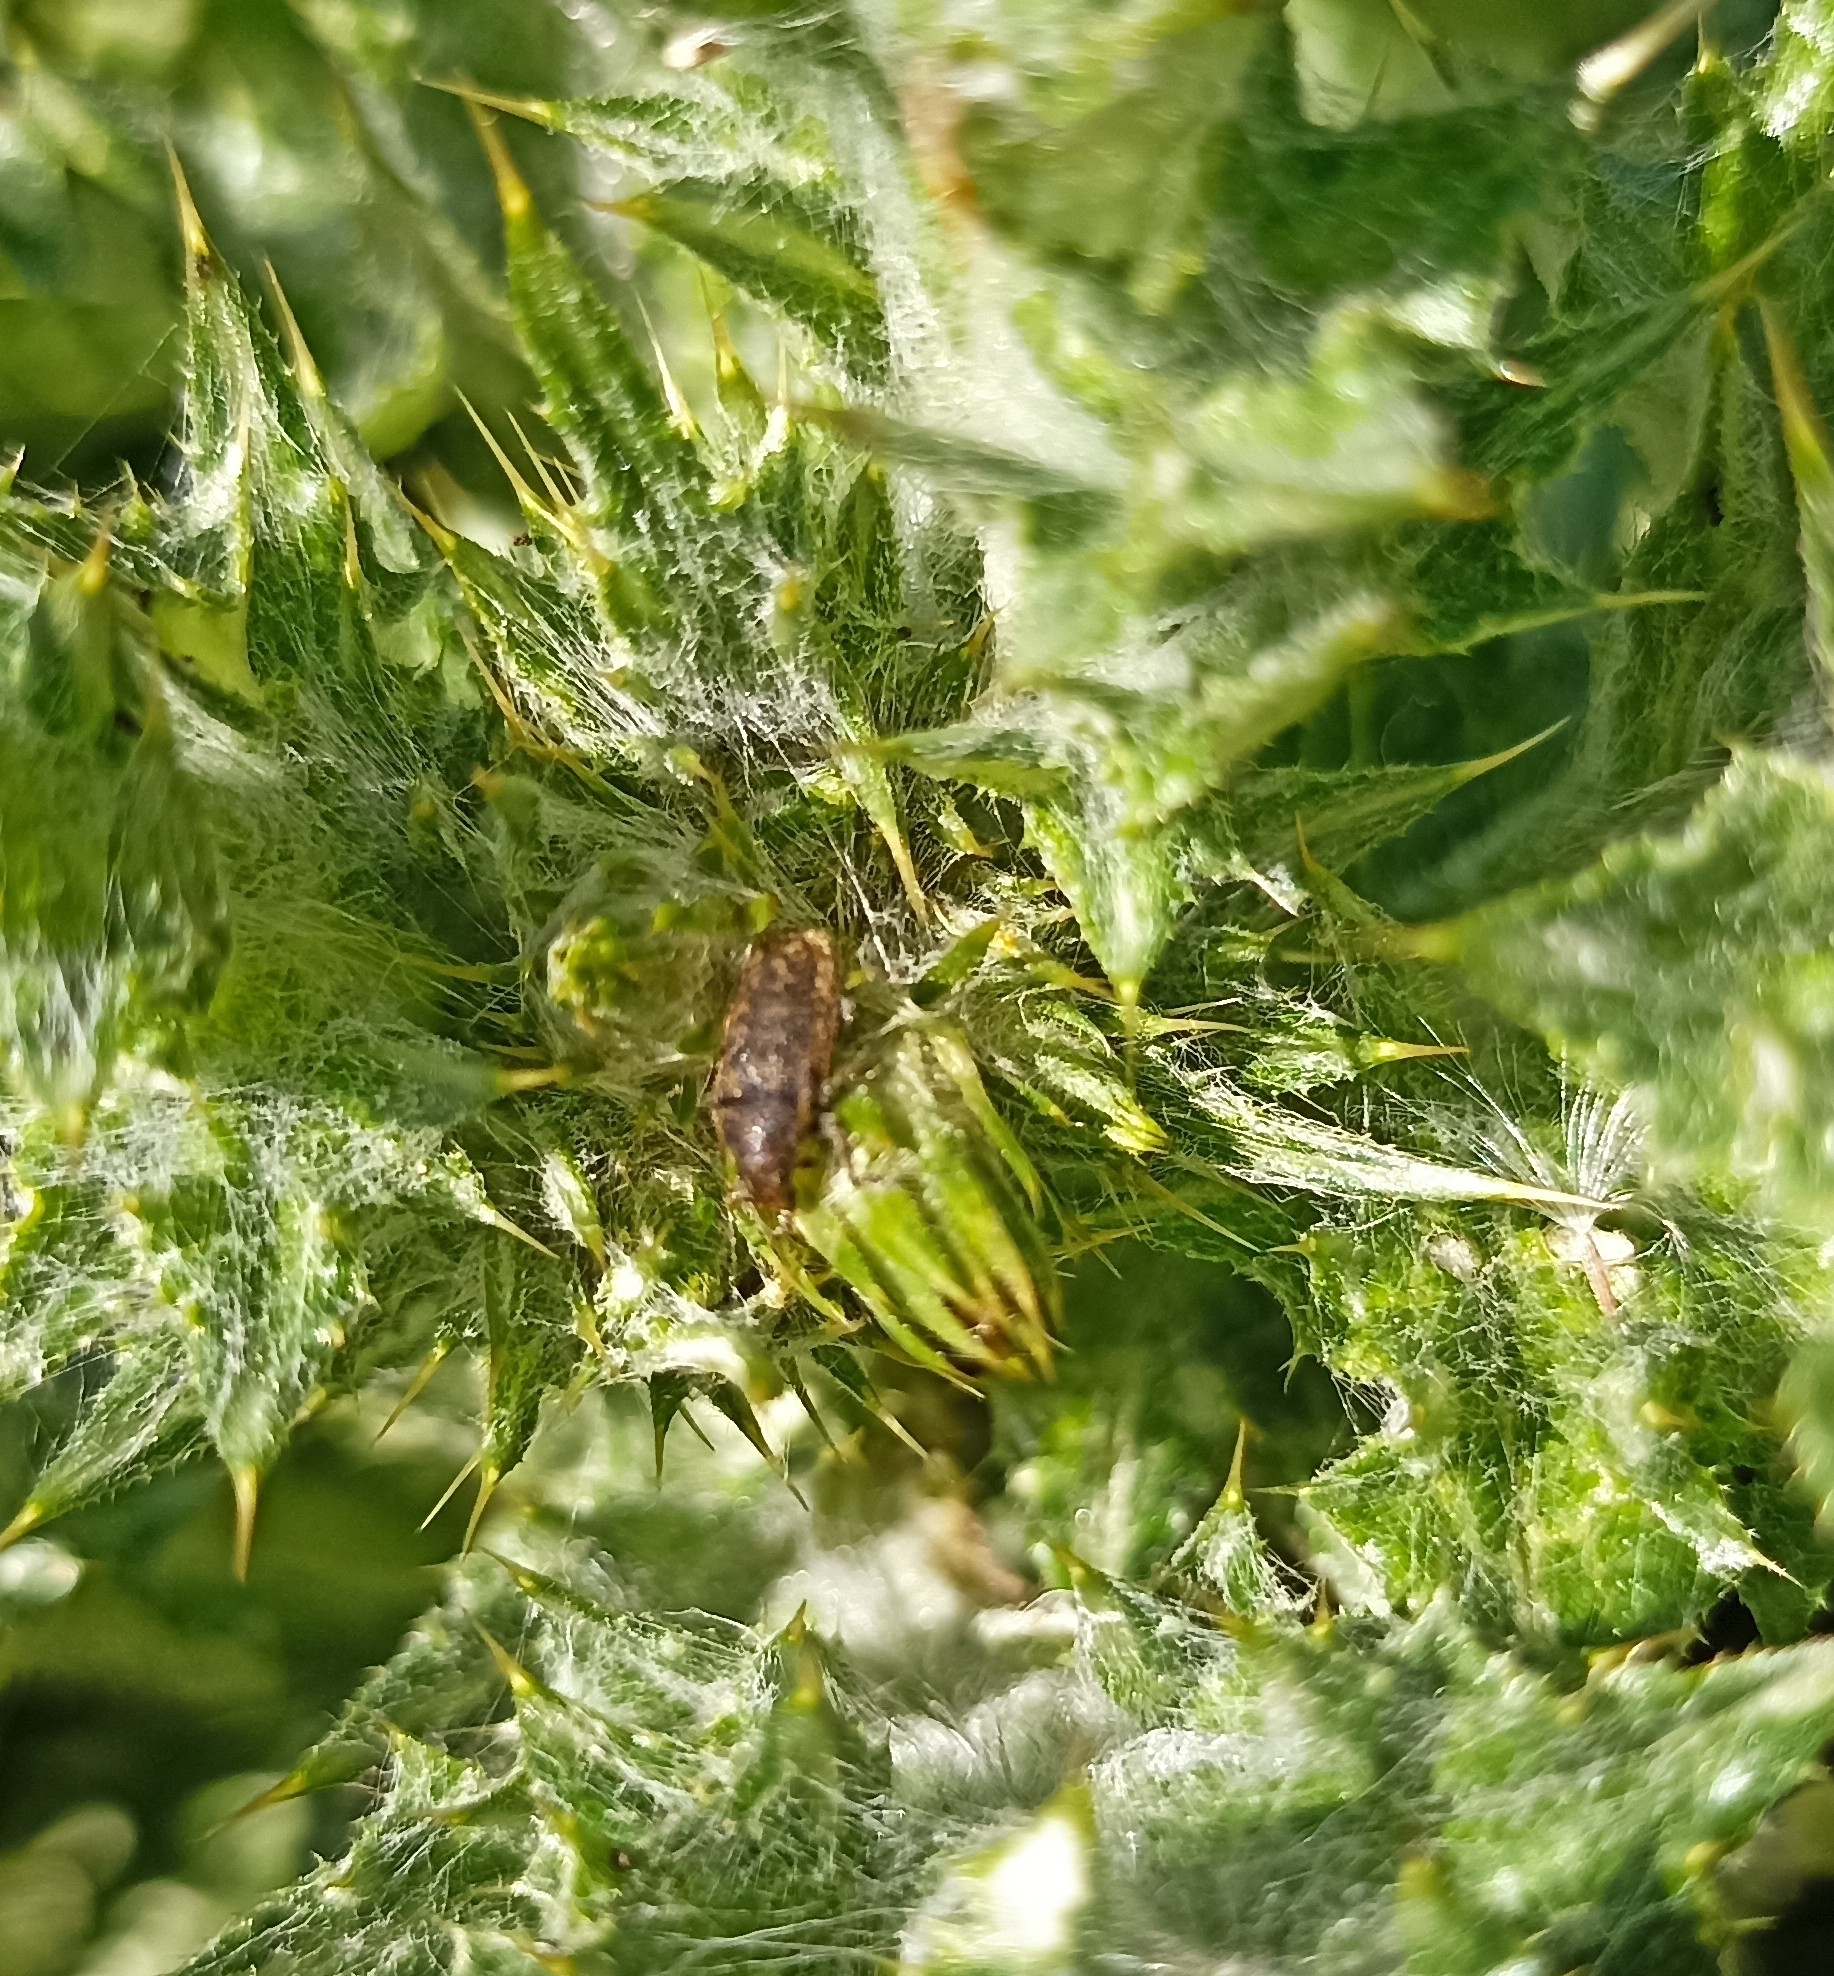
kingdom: Animalia
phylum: Arthropoda
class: Insecta
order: Coleoptera
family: Curculionidae
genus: Rhinocyllus
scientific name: Rhinocyllus conicus
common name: Weevil
